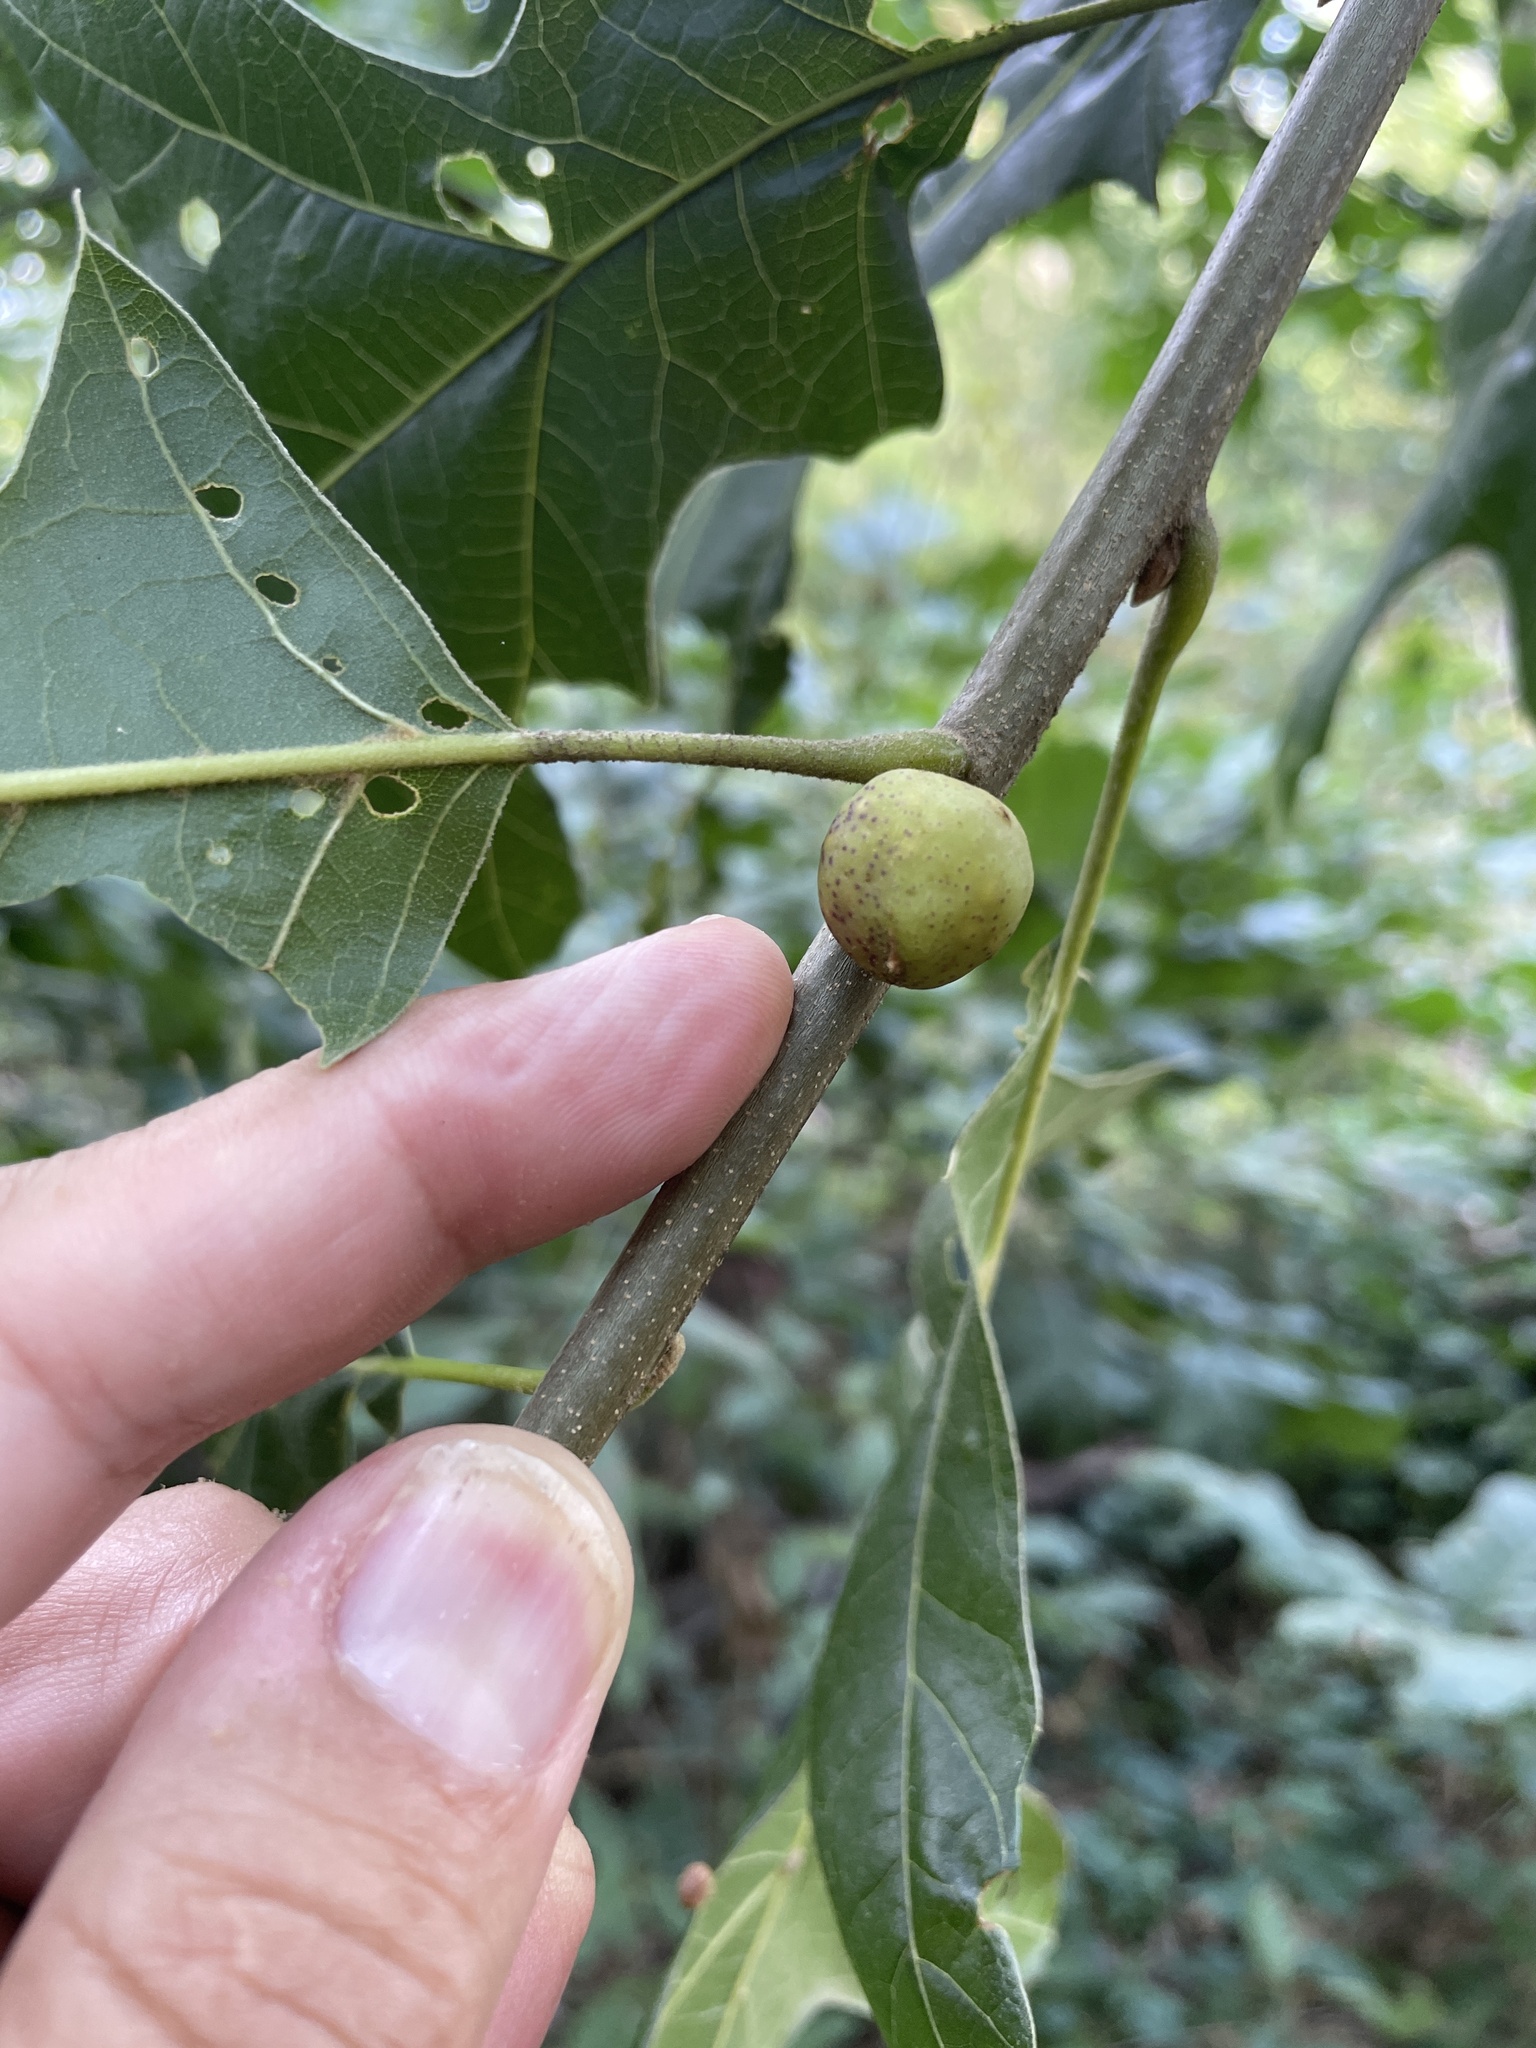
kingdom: Animalia
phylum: Arthropoda
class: Insecta
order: Hymenoptera
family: Cynipidae
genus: Amphibolips
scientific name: Amphibolips
